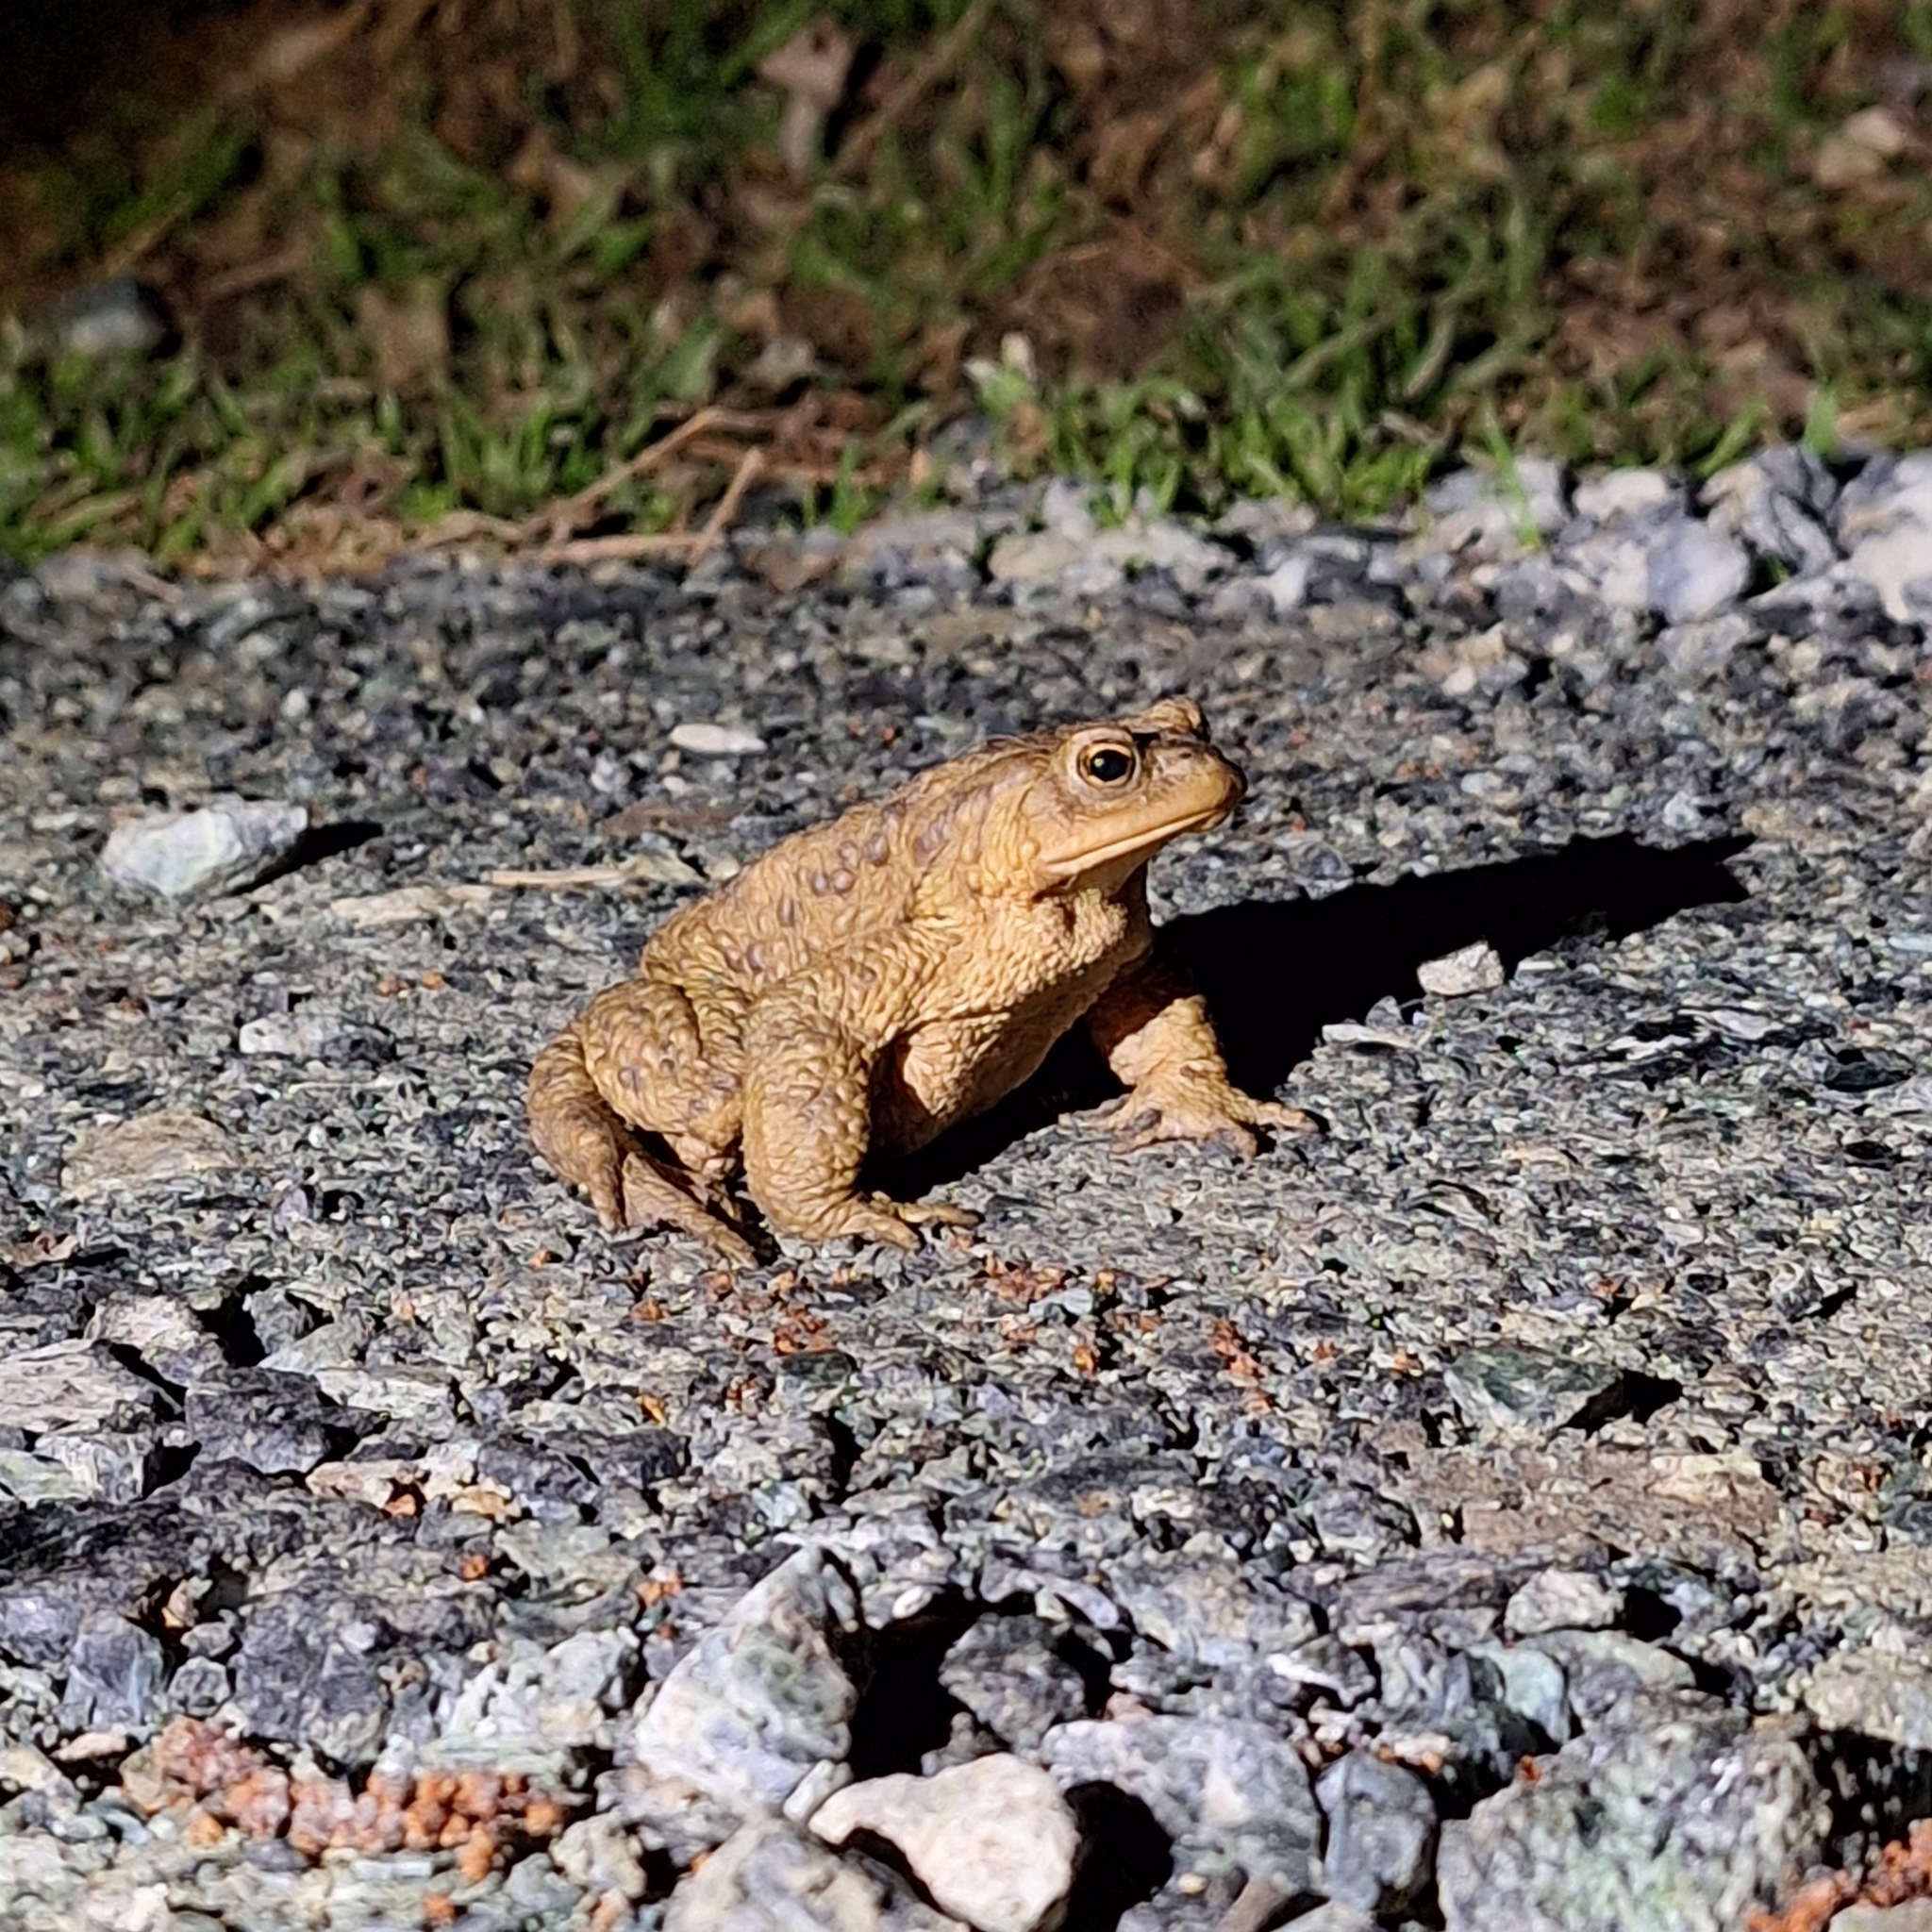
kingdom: Animalia
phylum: Chordata
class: Amphibia
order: Anura
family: Bufonidae
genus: Bufo
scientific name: Bufo bufo
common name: Common toad
